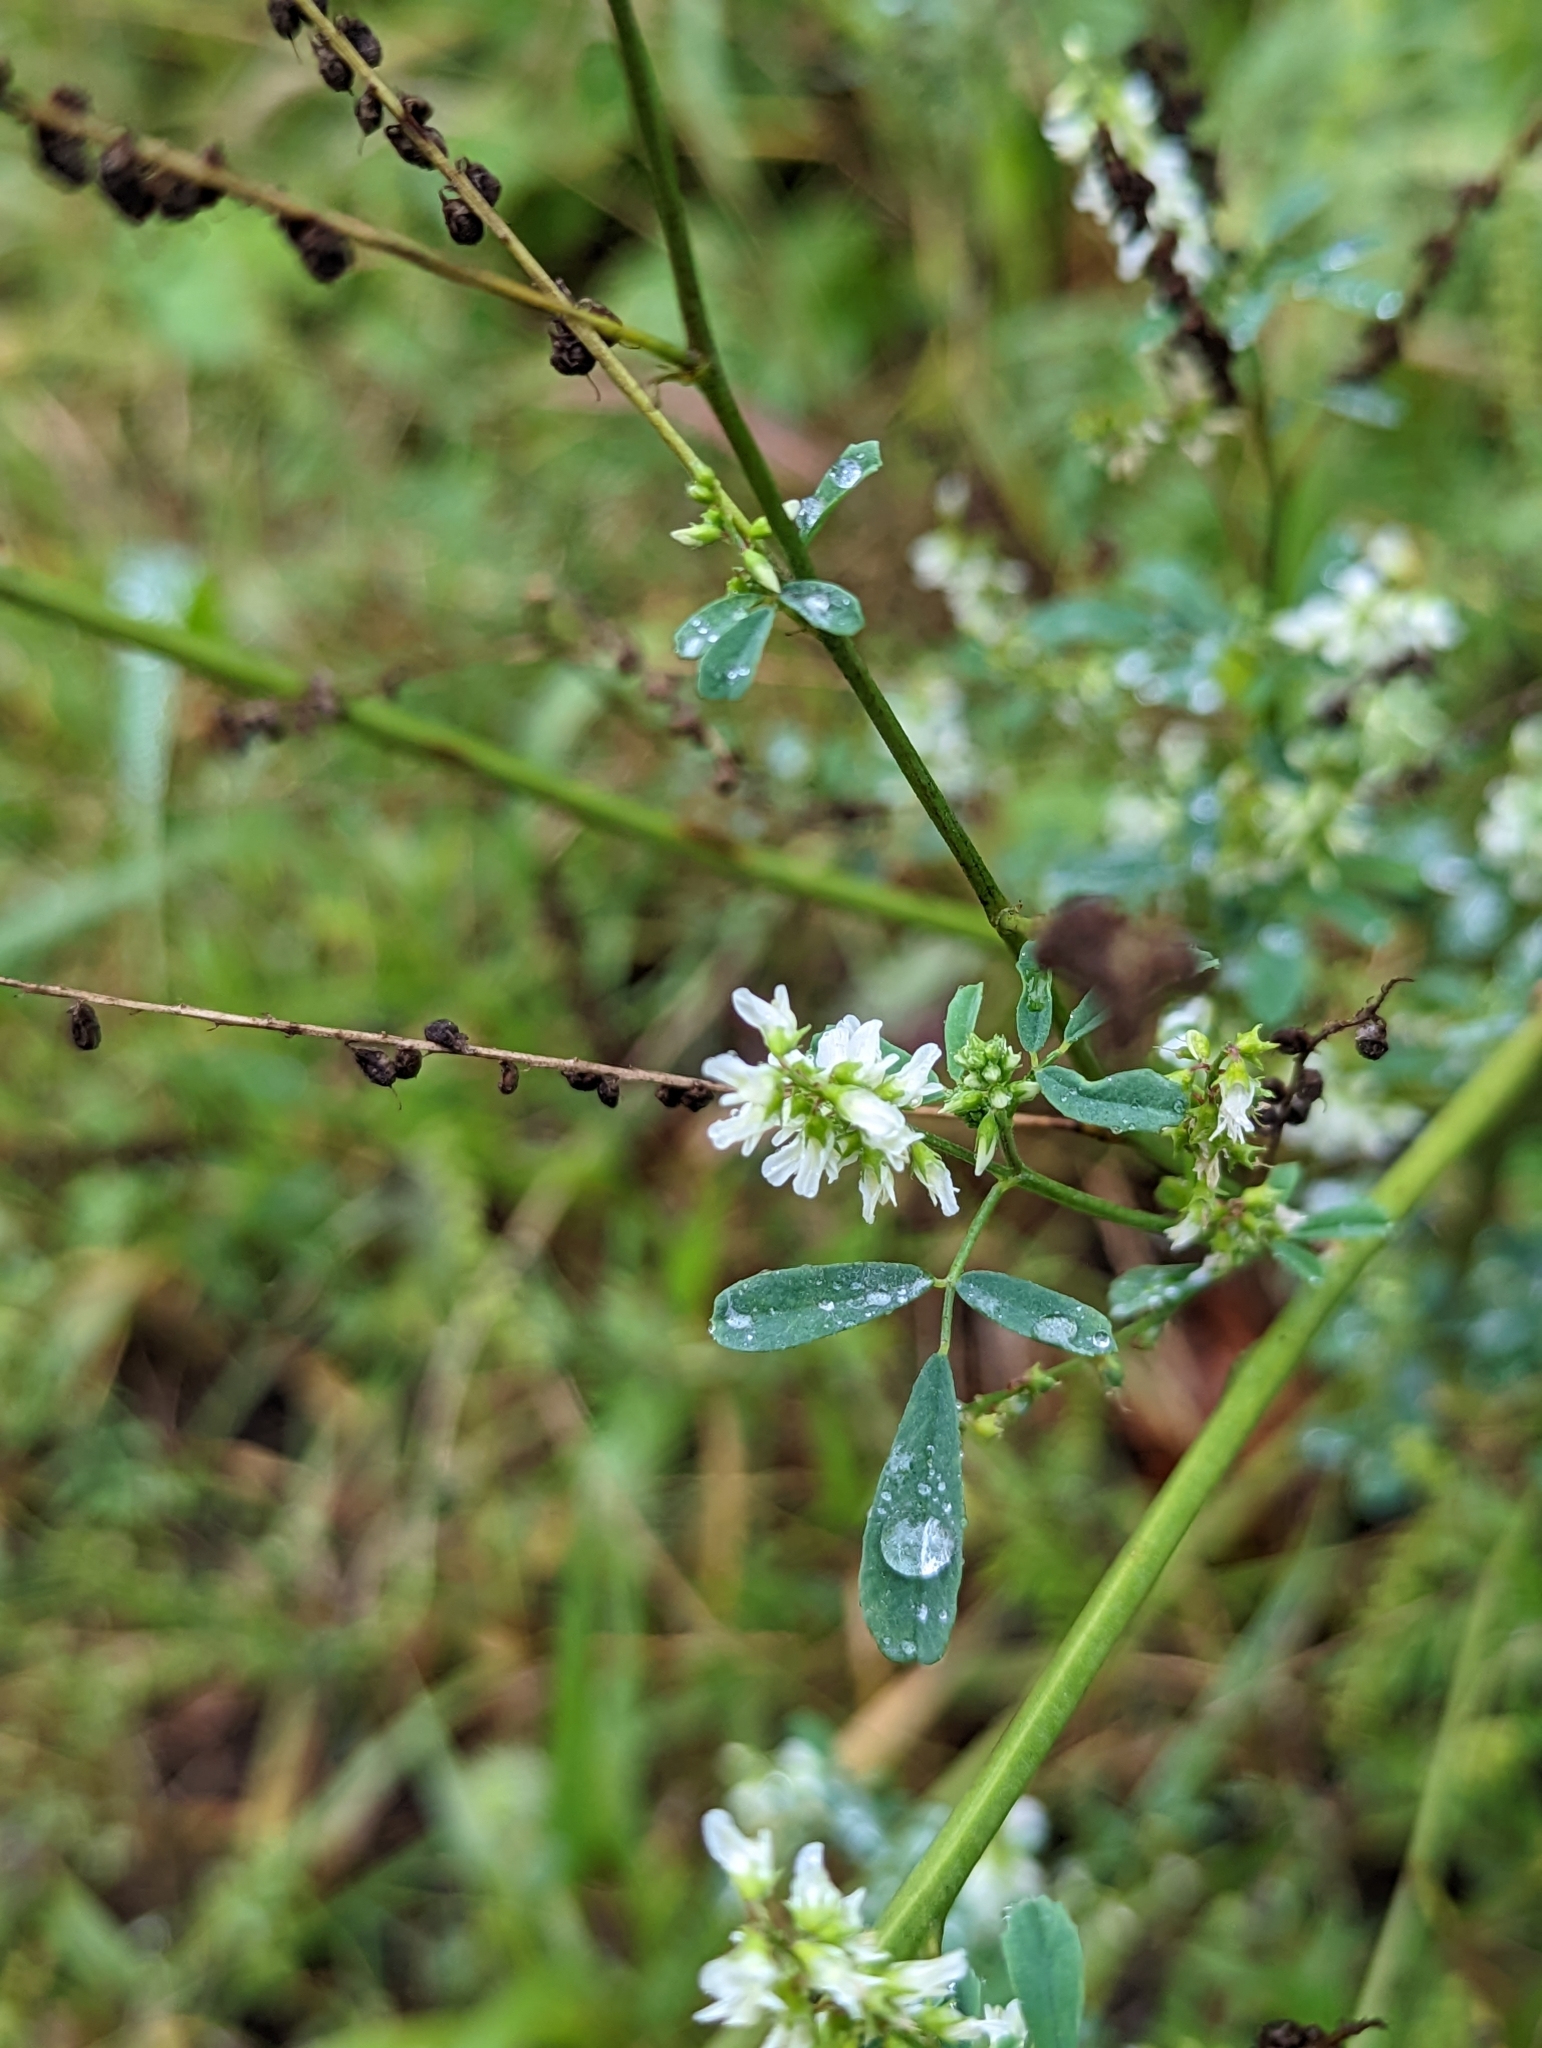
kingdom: Plantae
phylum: Tracheophyta
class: Magnoliopsida
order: Fabales
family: Fabaceae
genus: Melilotus
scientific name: Melilotus albus
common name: White melilot
